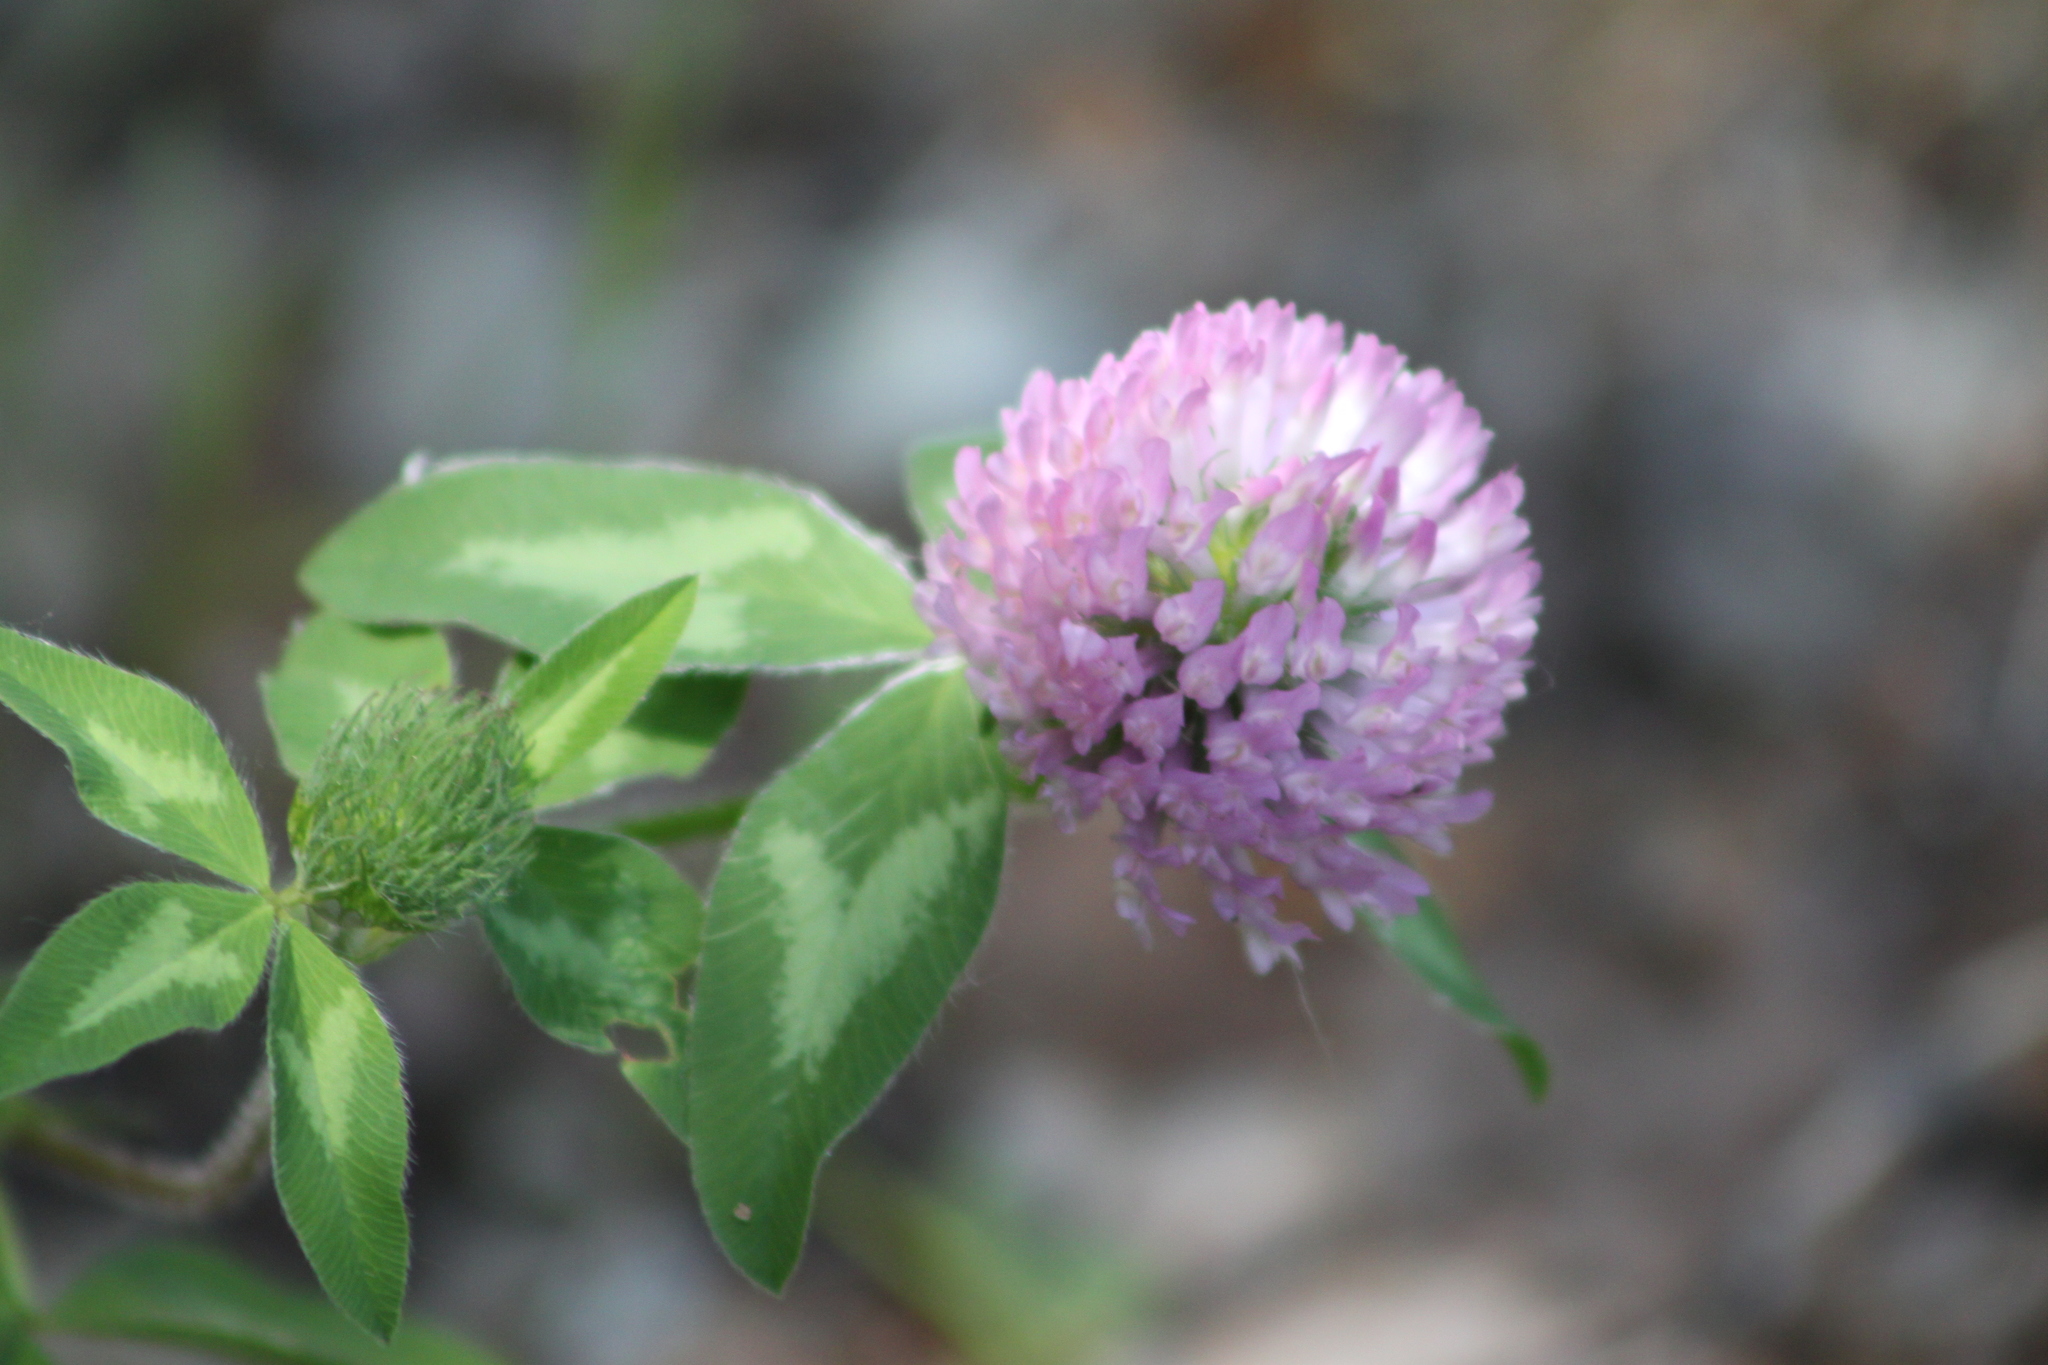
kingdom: Plantae
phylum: Tracheophyta
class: Magnoliopsida
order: Fabales
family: Fabaceae
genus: Trifolium
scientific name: Trifolium pratense
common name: Red clover
